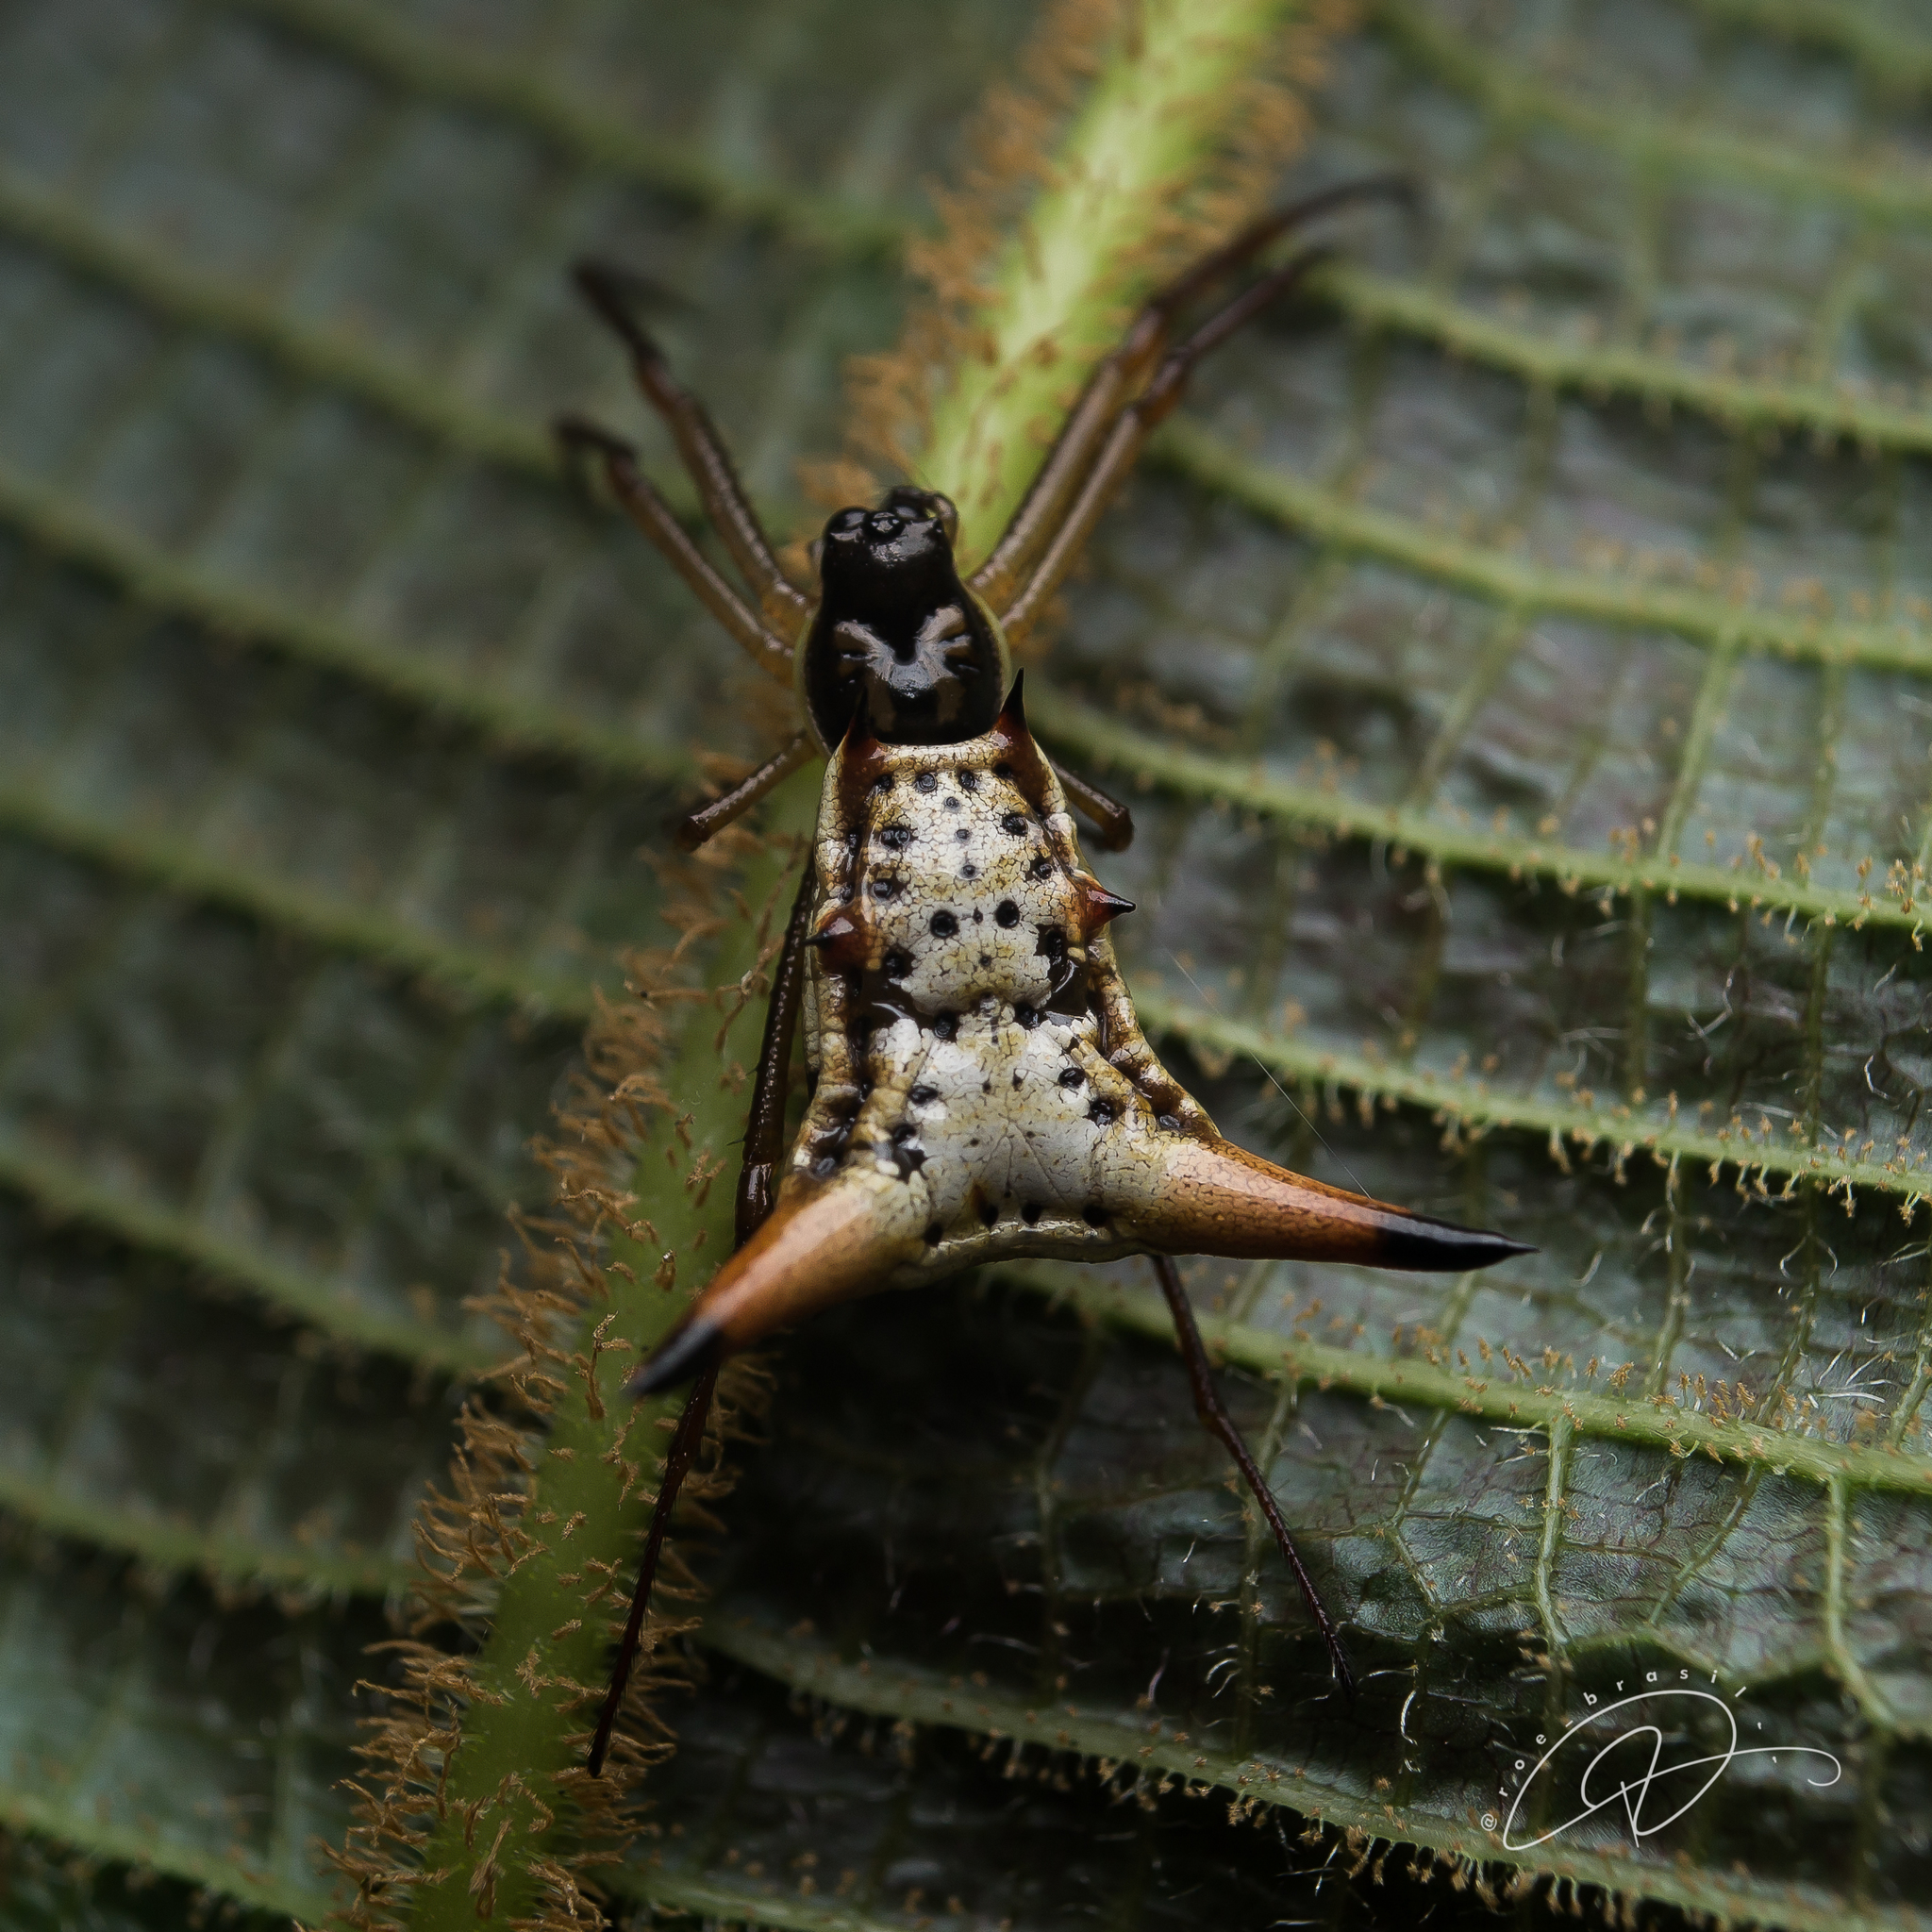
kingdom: Animalia
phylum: Arthropoda
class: Arachnida
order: Araneae
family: Araneidae
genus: Micrathena
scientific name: Micrathena sanctispiritus
